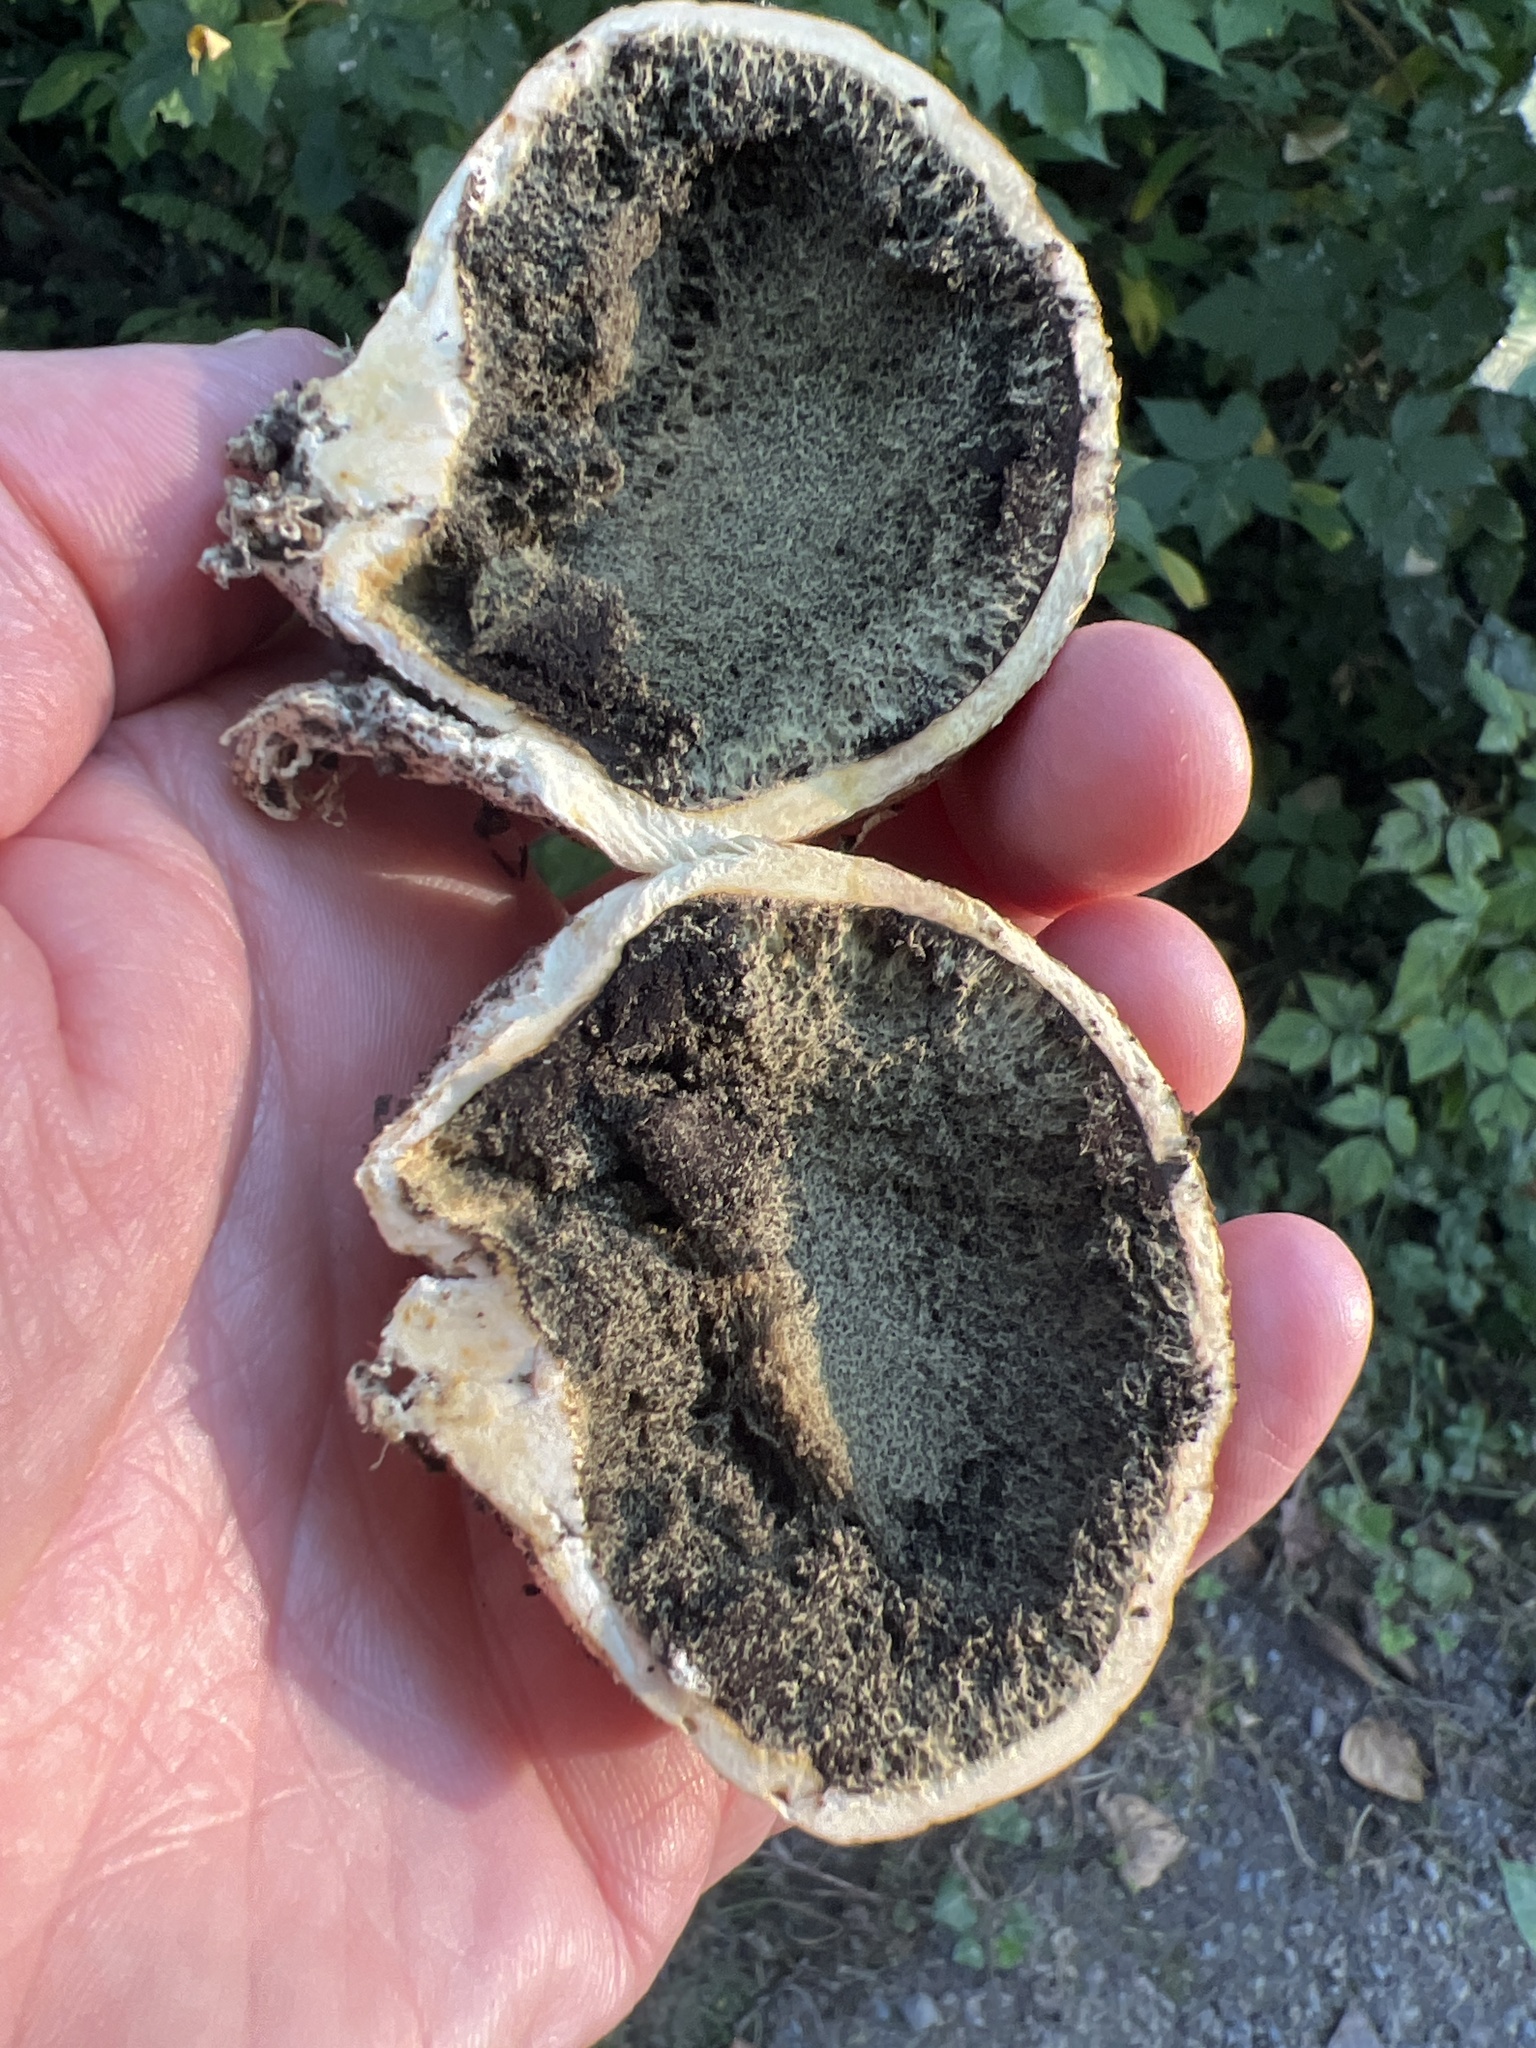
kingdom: Fungi
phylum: Basidiomycota
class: Agaricomycetes
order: Boletales
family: Sclerodermataceae
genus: Scleroderma
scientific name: Scleroderma cepa
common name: Onion earthball
